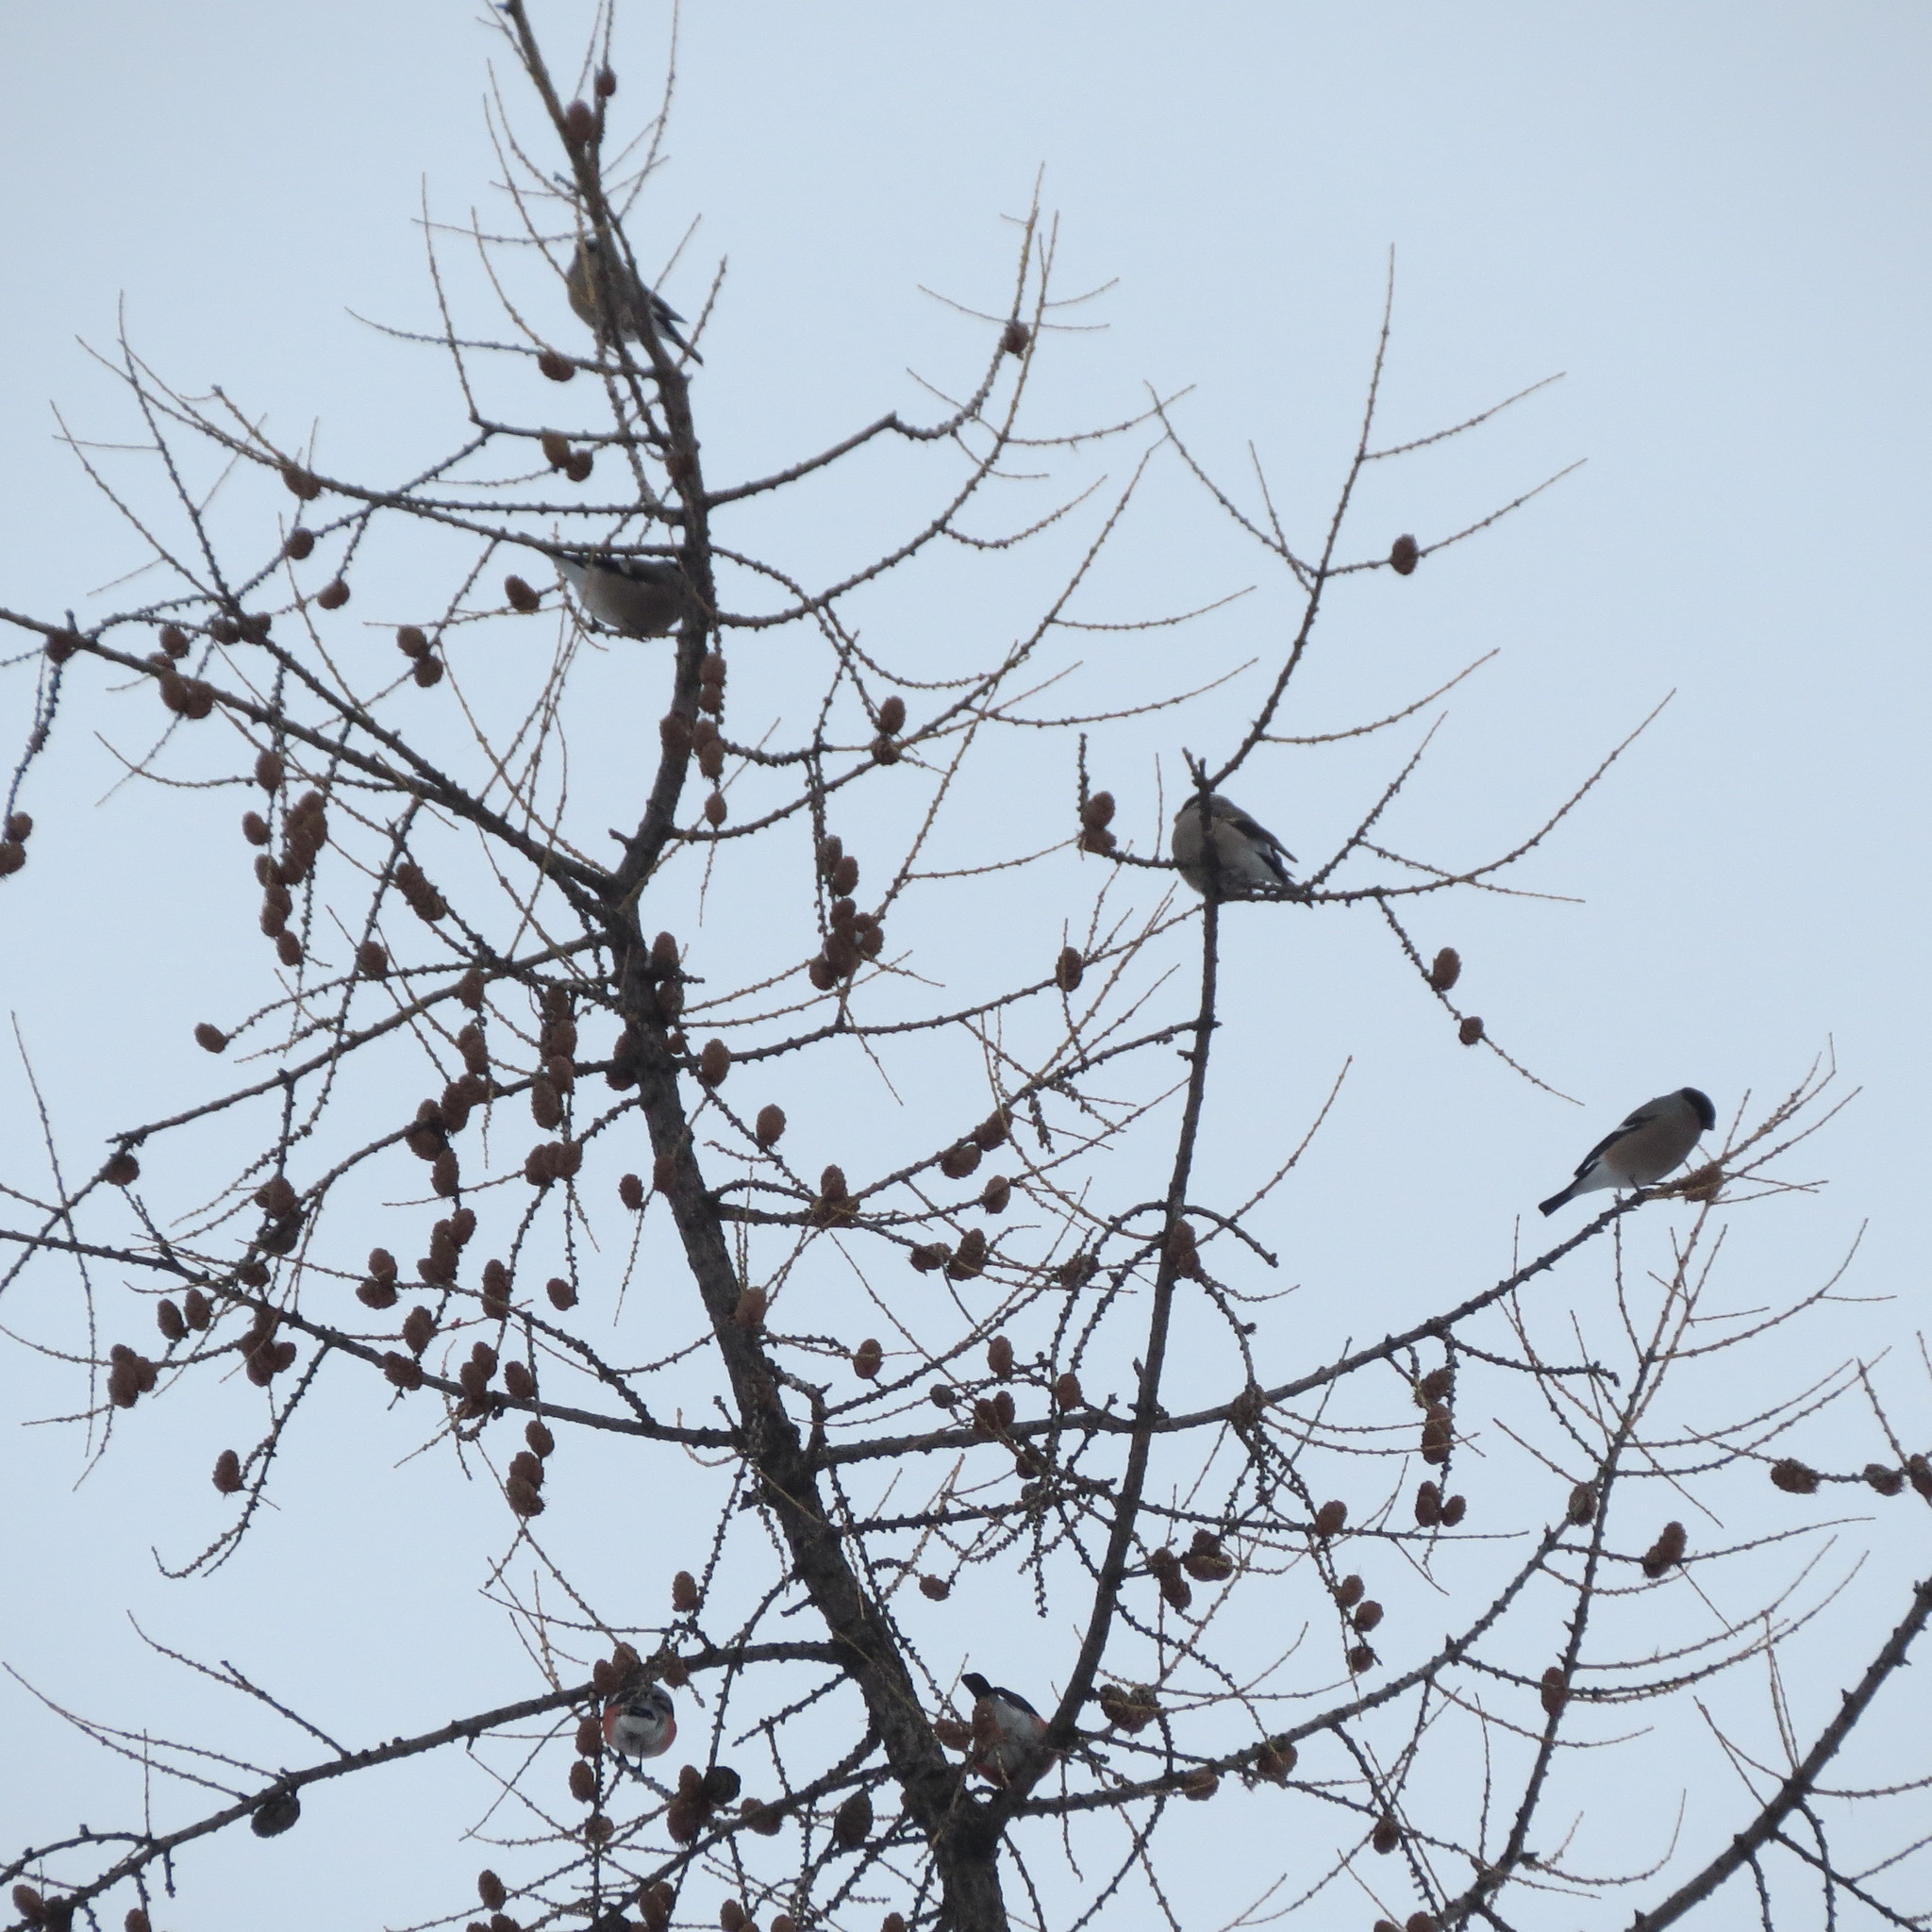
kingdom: Animalia
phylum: Chordata
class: Aves
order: Passeriformes
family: Fringillidae
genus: Pyrrhula
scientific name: Pyrrhula pyrrhula
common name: Eurasian bullfinch
